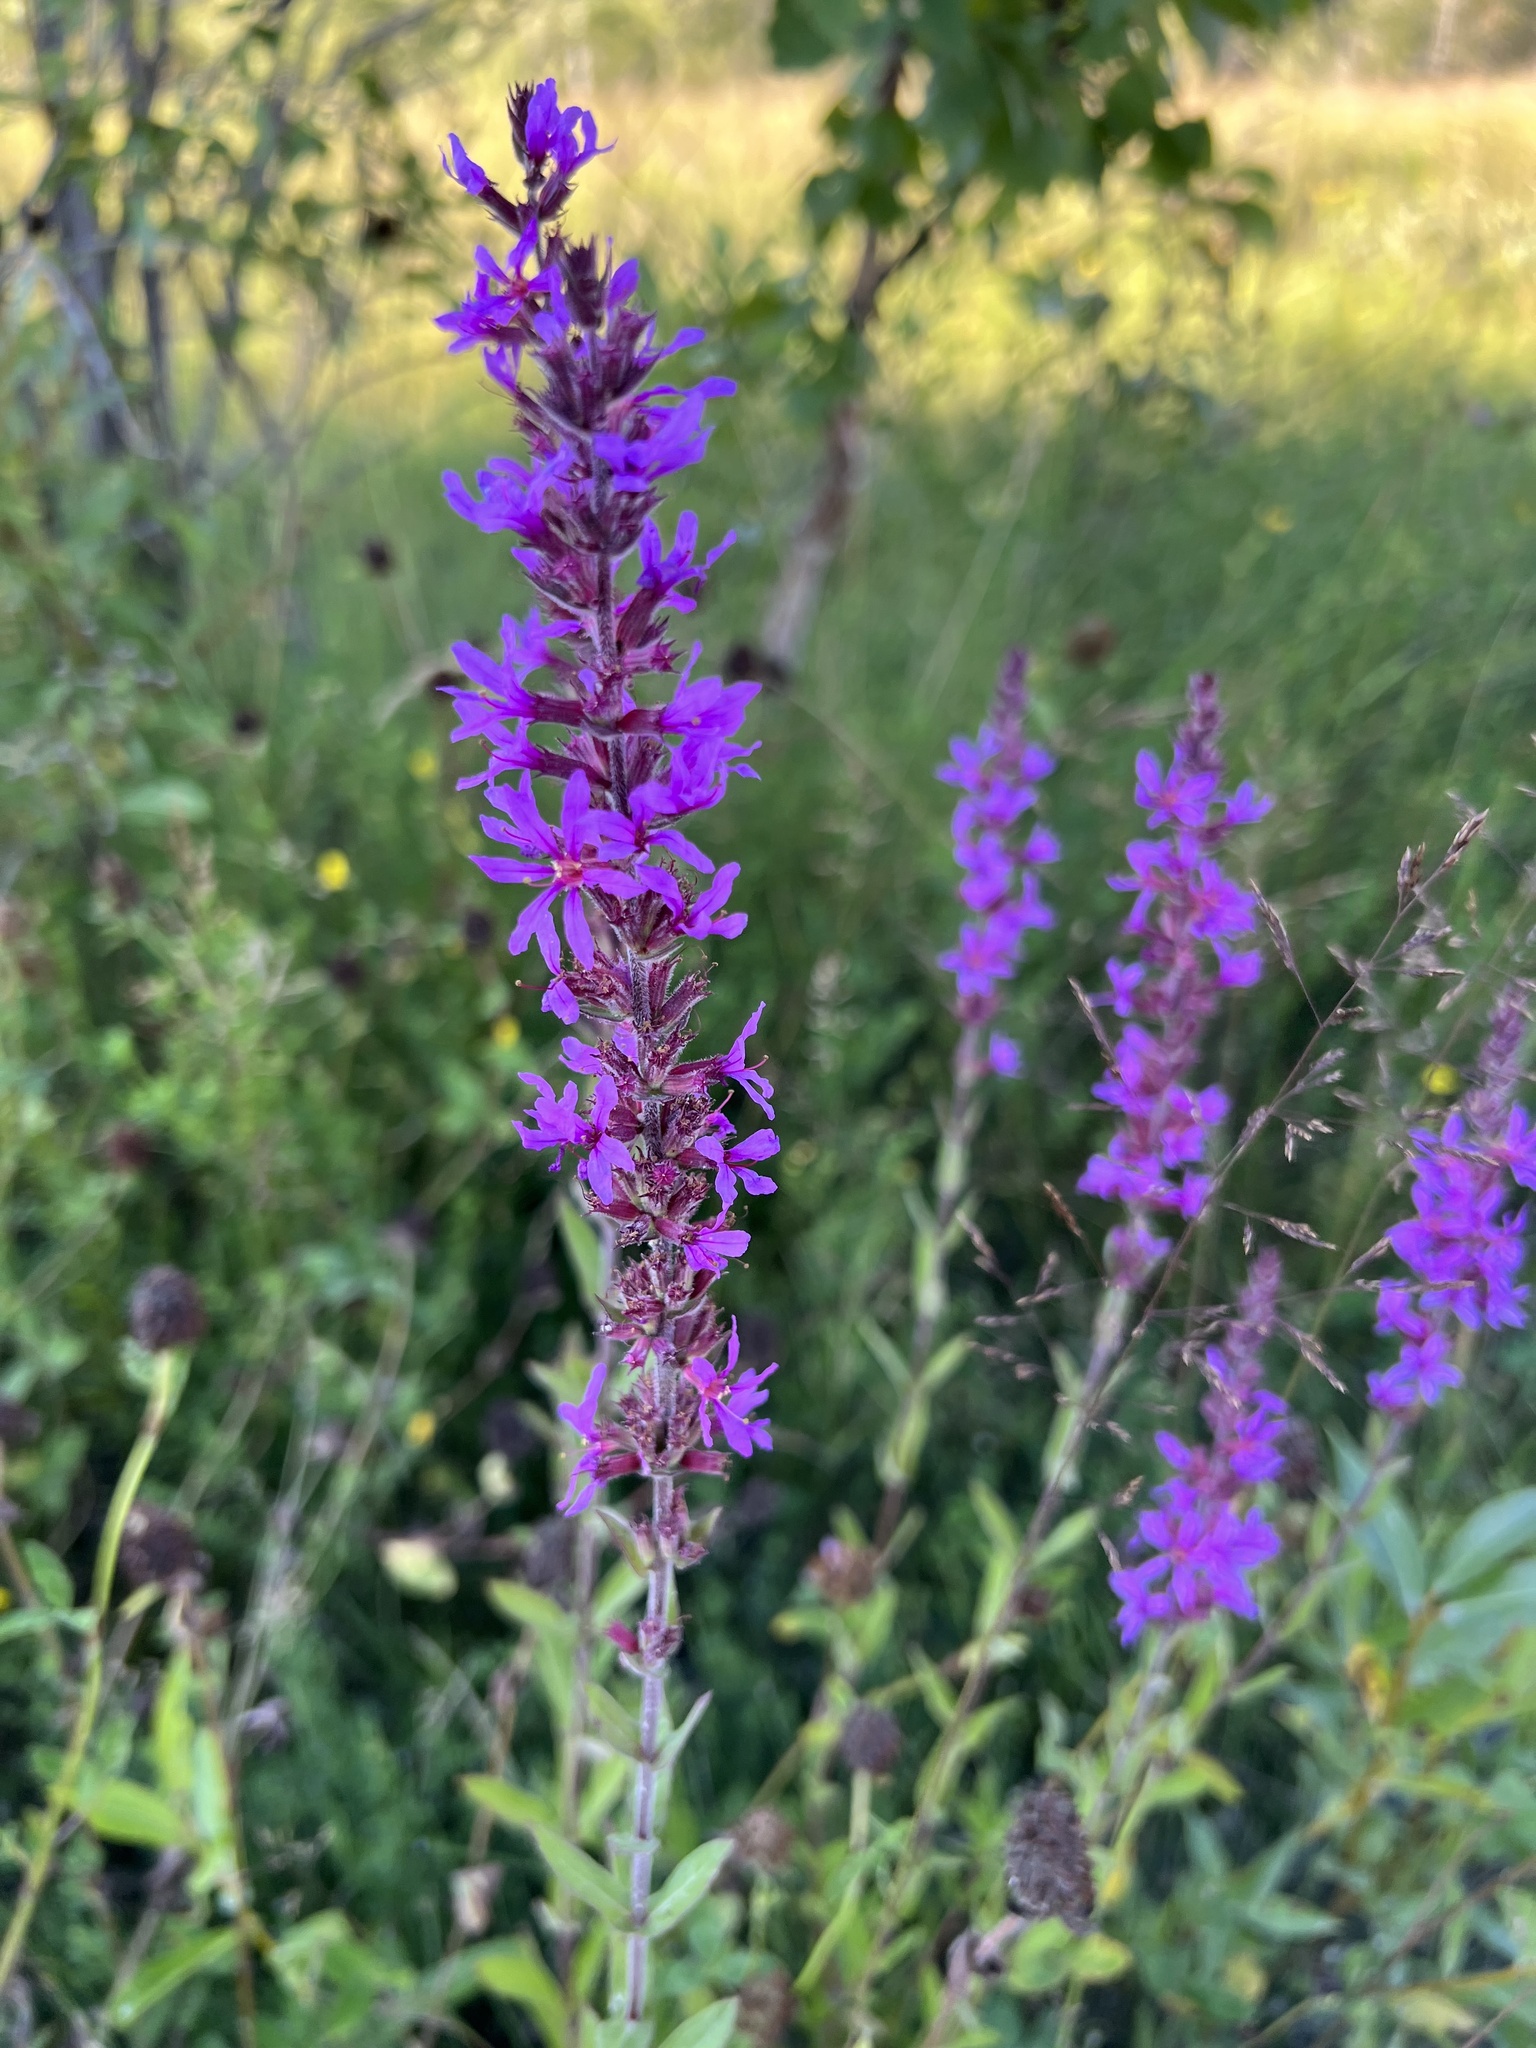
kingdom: Plantae
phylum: Tracheophyta
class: Magnoliopsida
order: Myrtales
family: Lythraceae
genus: Lythrum
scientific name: Lythrum salicaria
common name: Purple loosestrife
